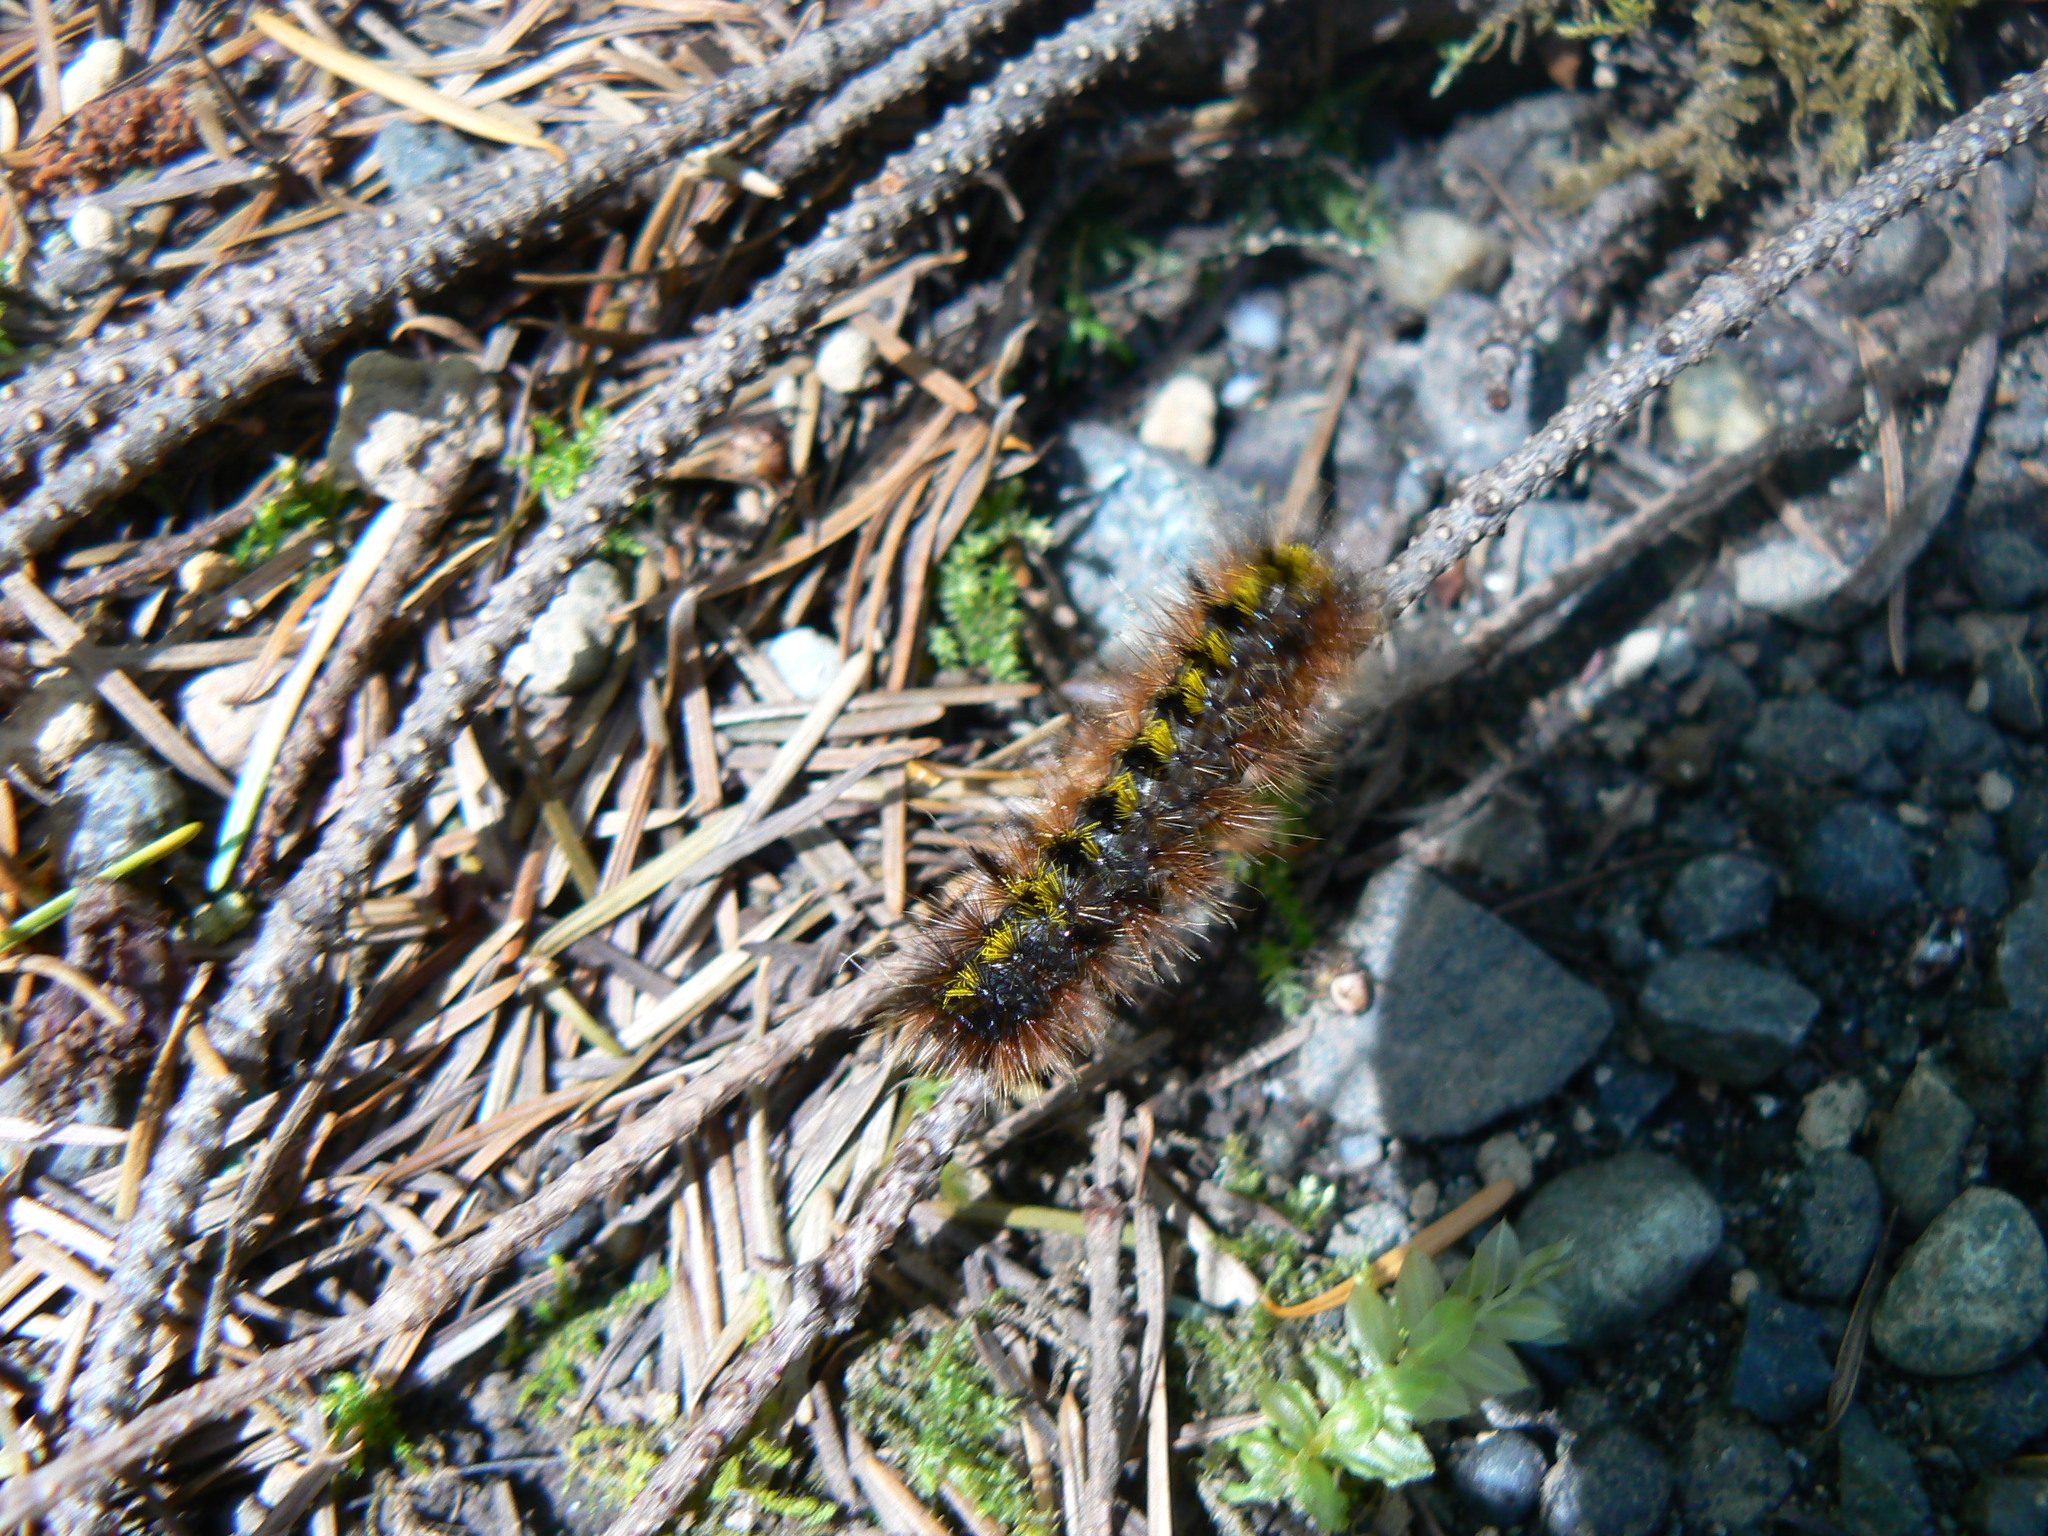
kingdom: Animalia
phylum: Arthropoda
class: Insecta
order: Lepidoptera
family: Erebidae
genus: Lophocampa
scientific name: Lophocampa argentata
